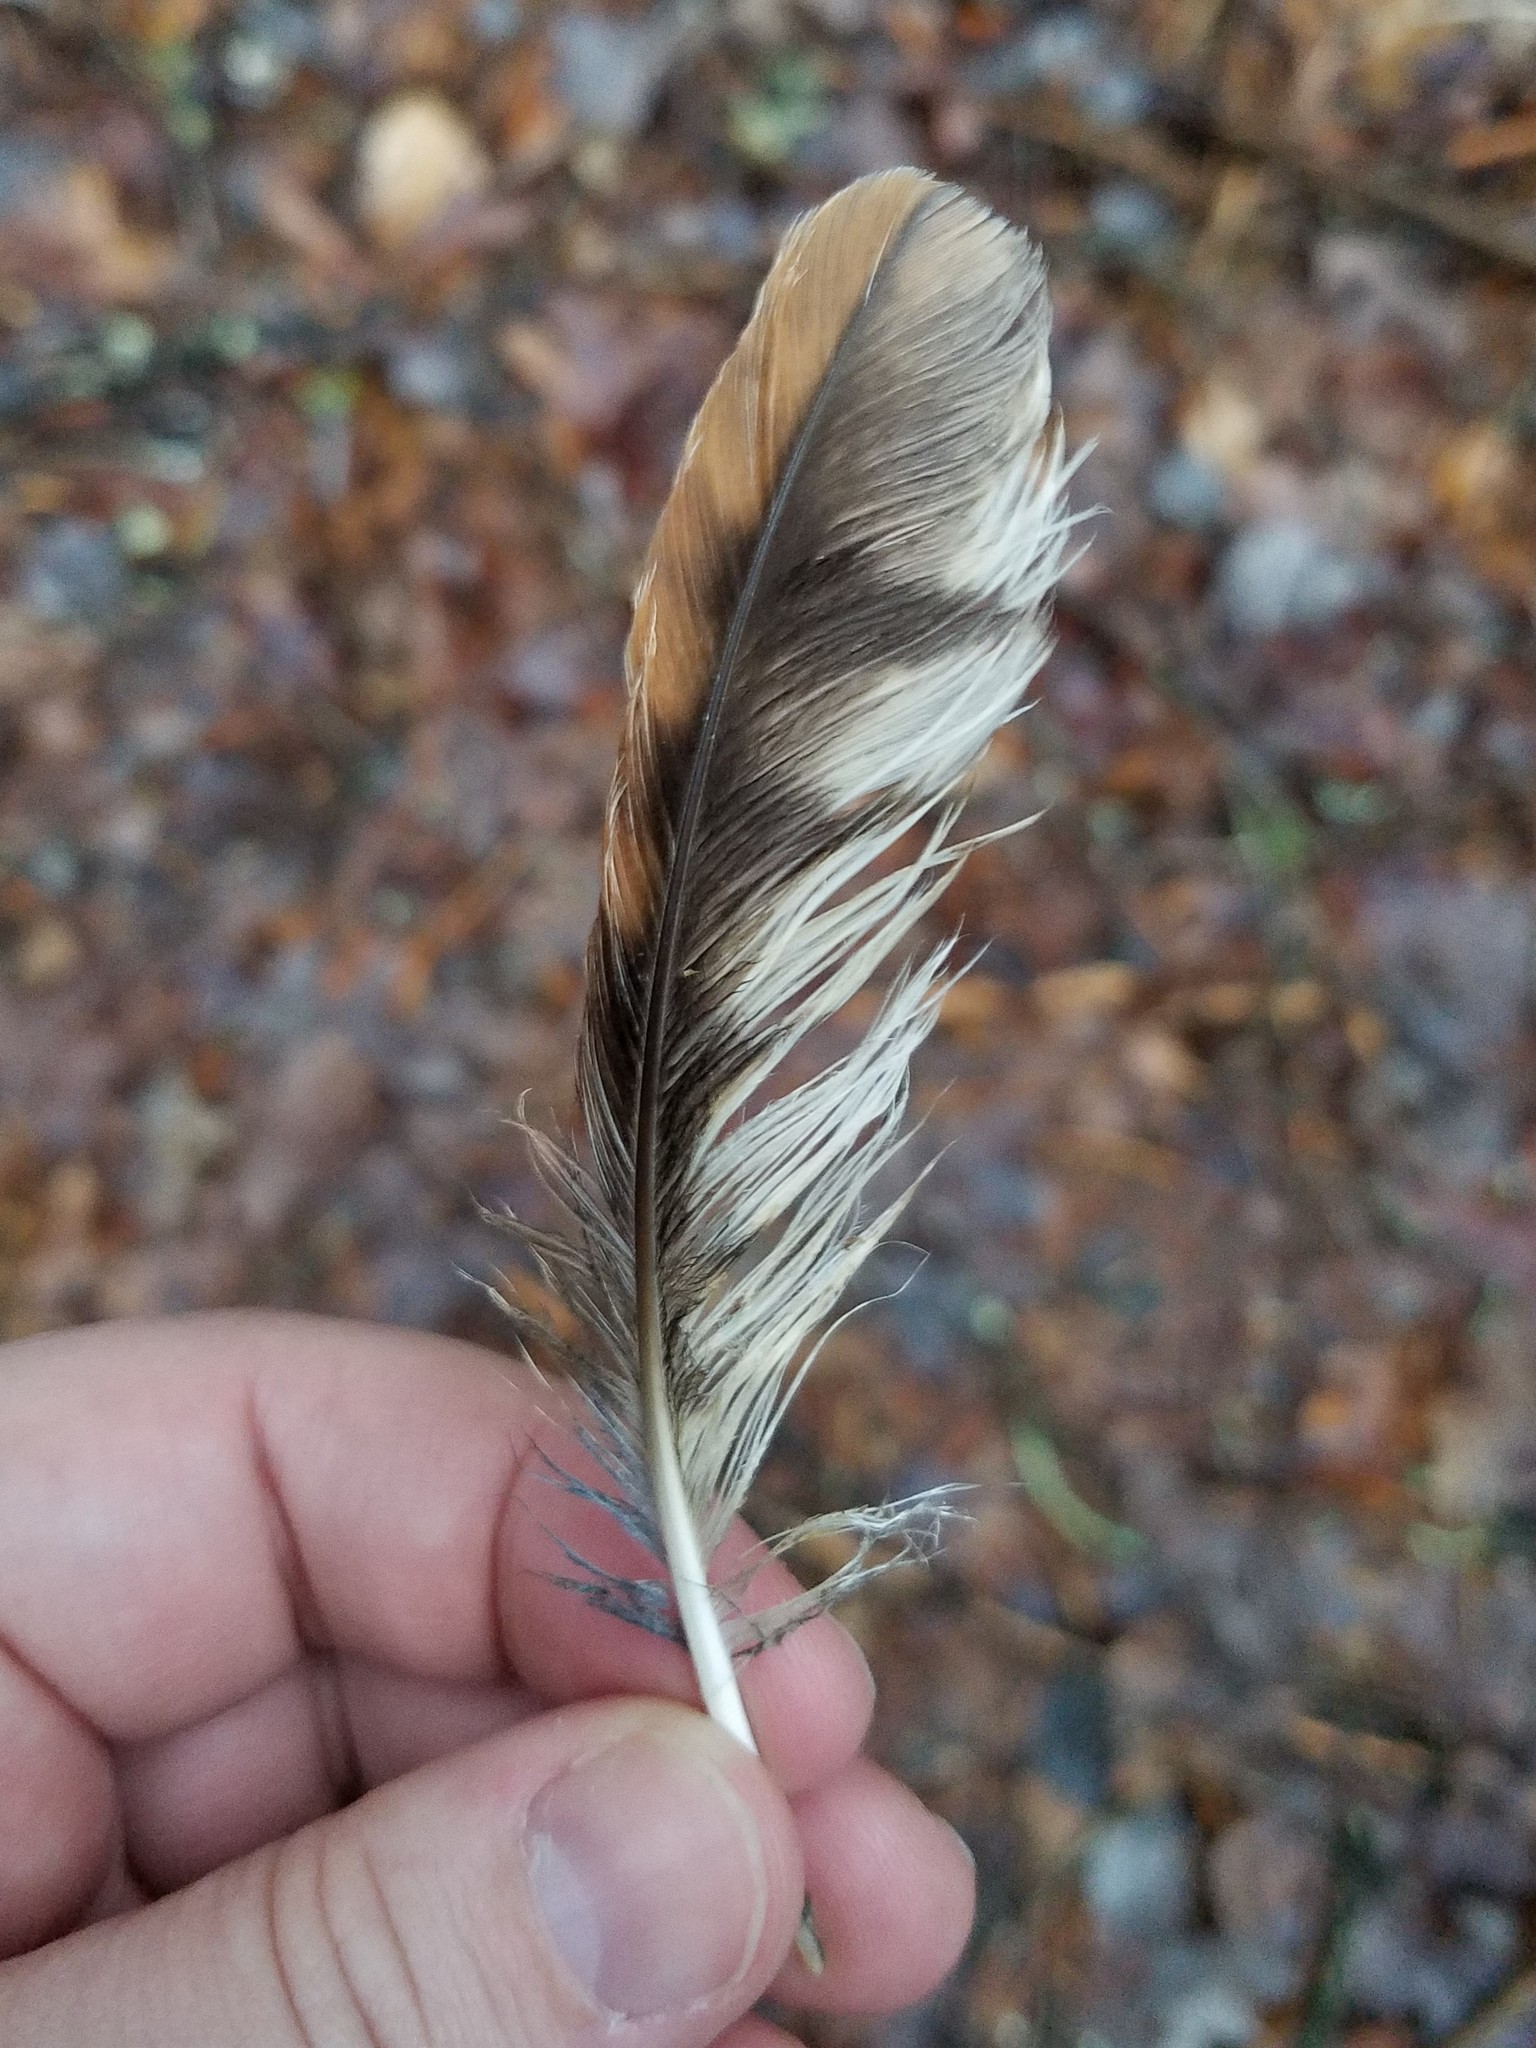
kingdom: Animalia
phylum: Chordata
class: Aves
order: Strigiformes
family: Strigidae
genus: Megascops
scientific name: Megascops asio
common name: Eastern screech-owl
